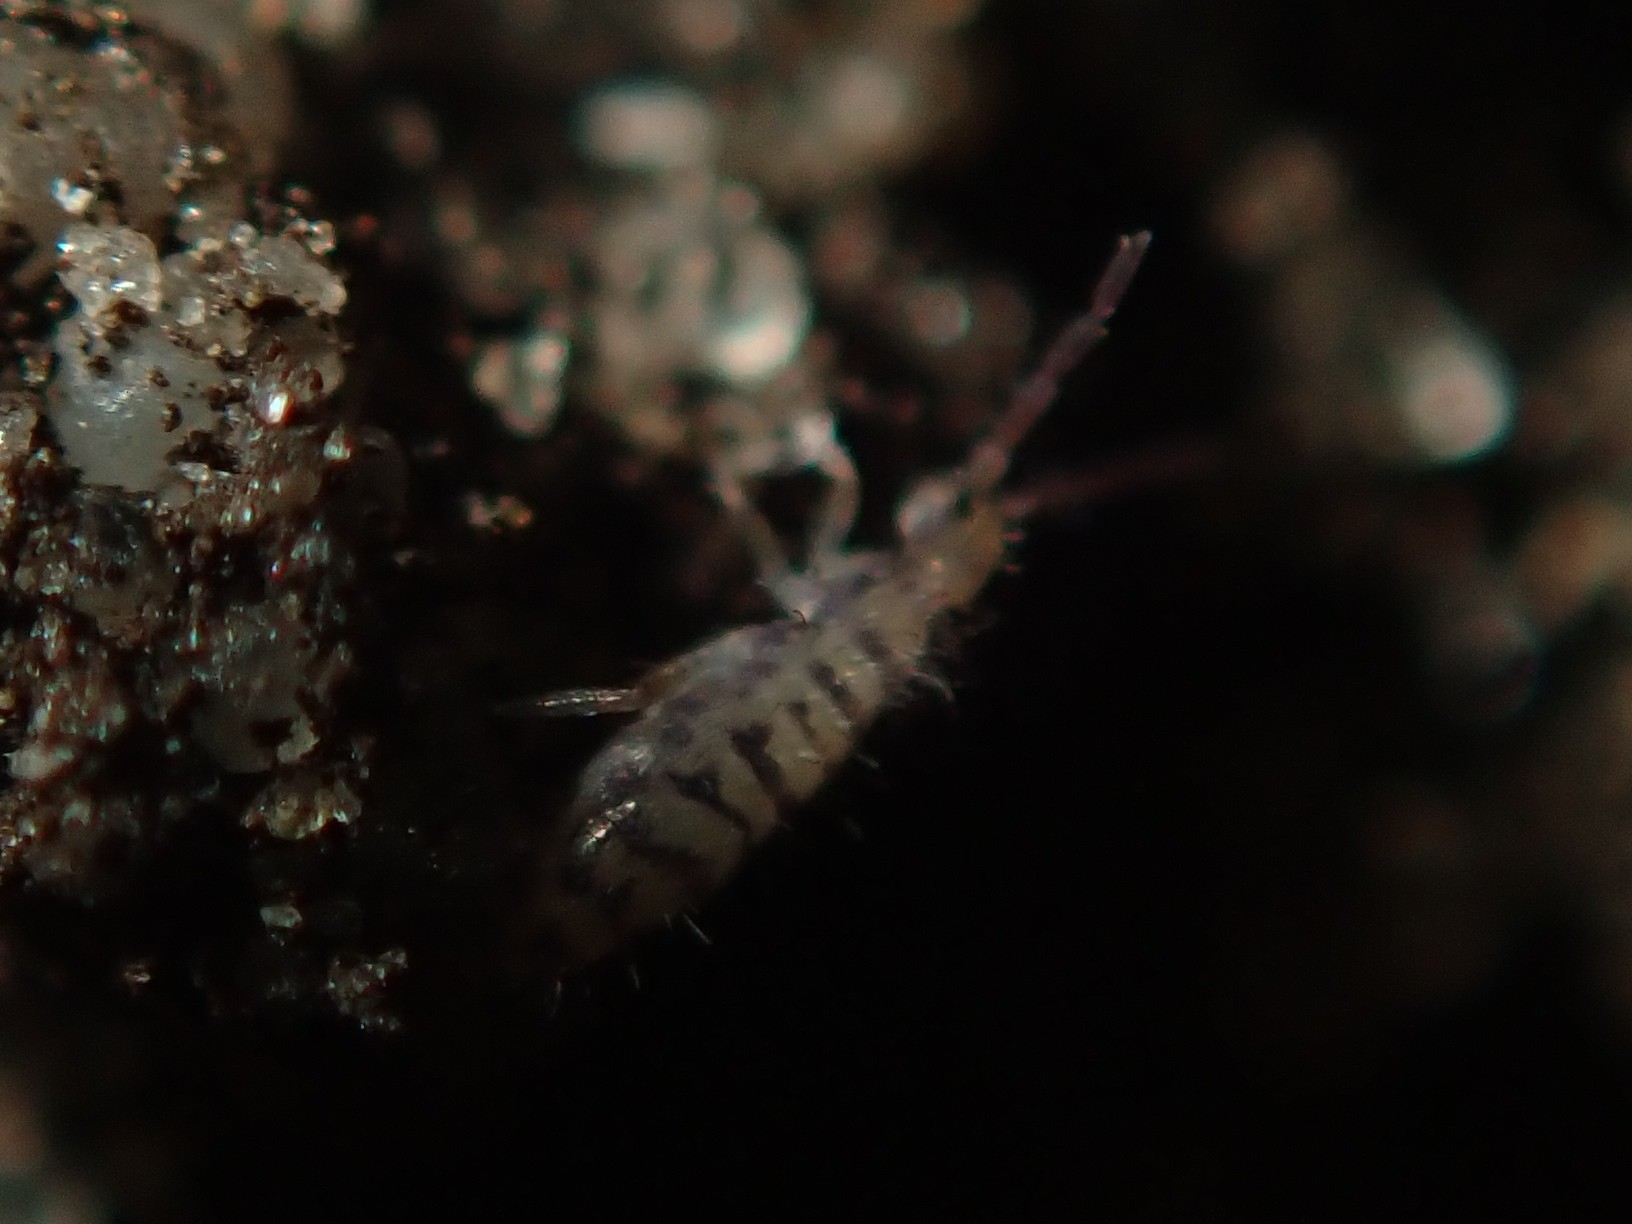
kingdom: Animalia
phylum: Arthropoda
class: Collembola
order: Entomobryomorpha
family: Entomobryidae
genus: Entomobrya
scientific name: Entomobrya multifasciata
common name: Springtail
